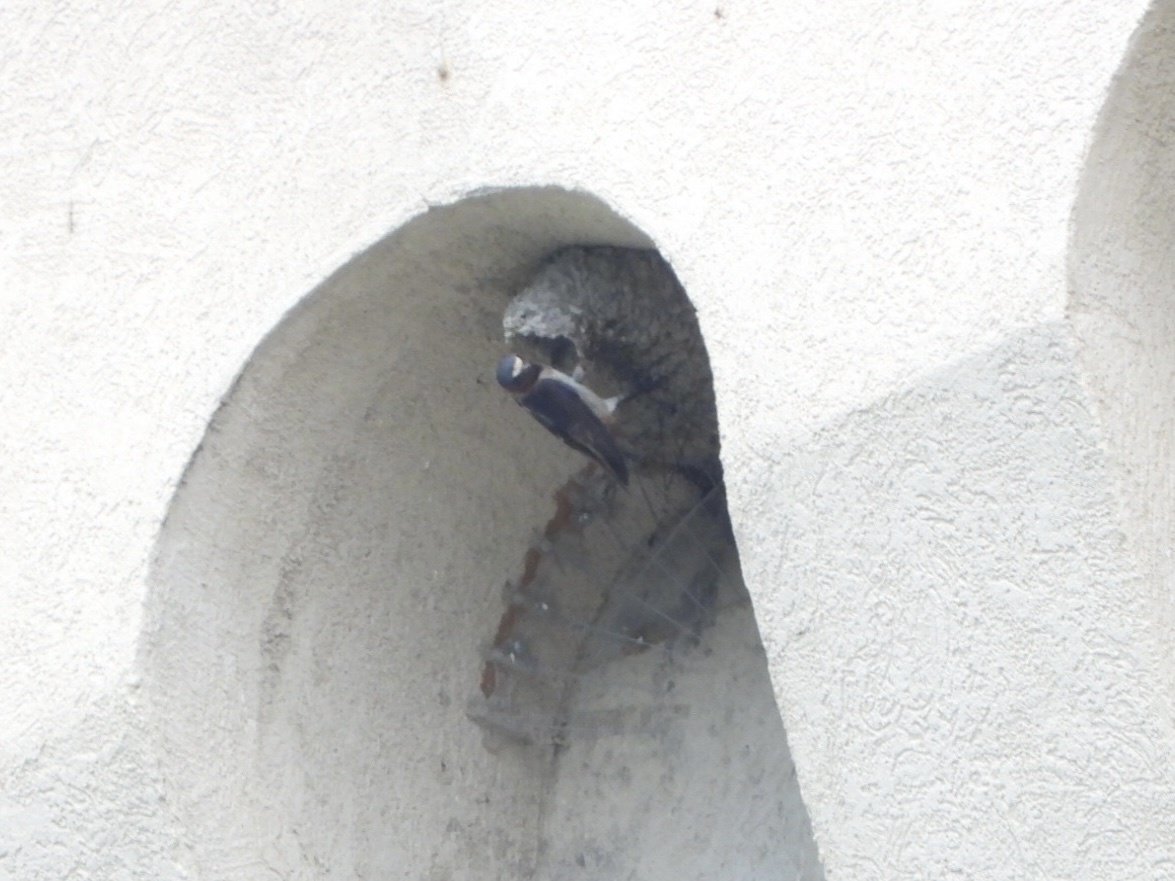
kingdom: Animalia
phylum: Chordata
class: Aves
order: Passeriformes
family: Hirundinidae
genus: Petrochelidon
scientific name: Petrochelidon pyrrhonota
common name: American cliff swallow
